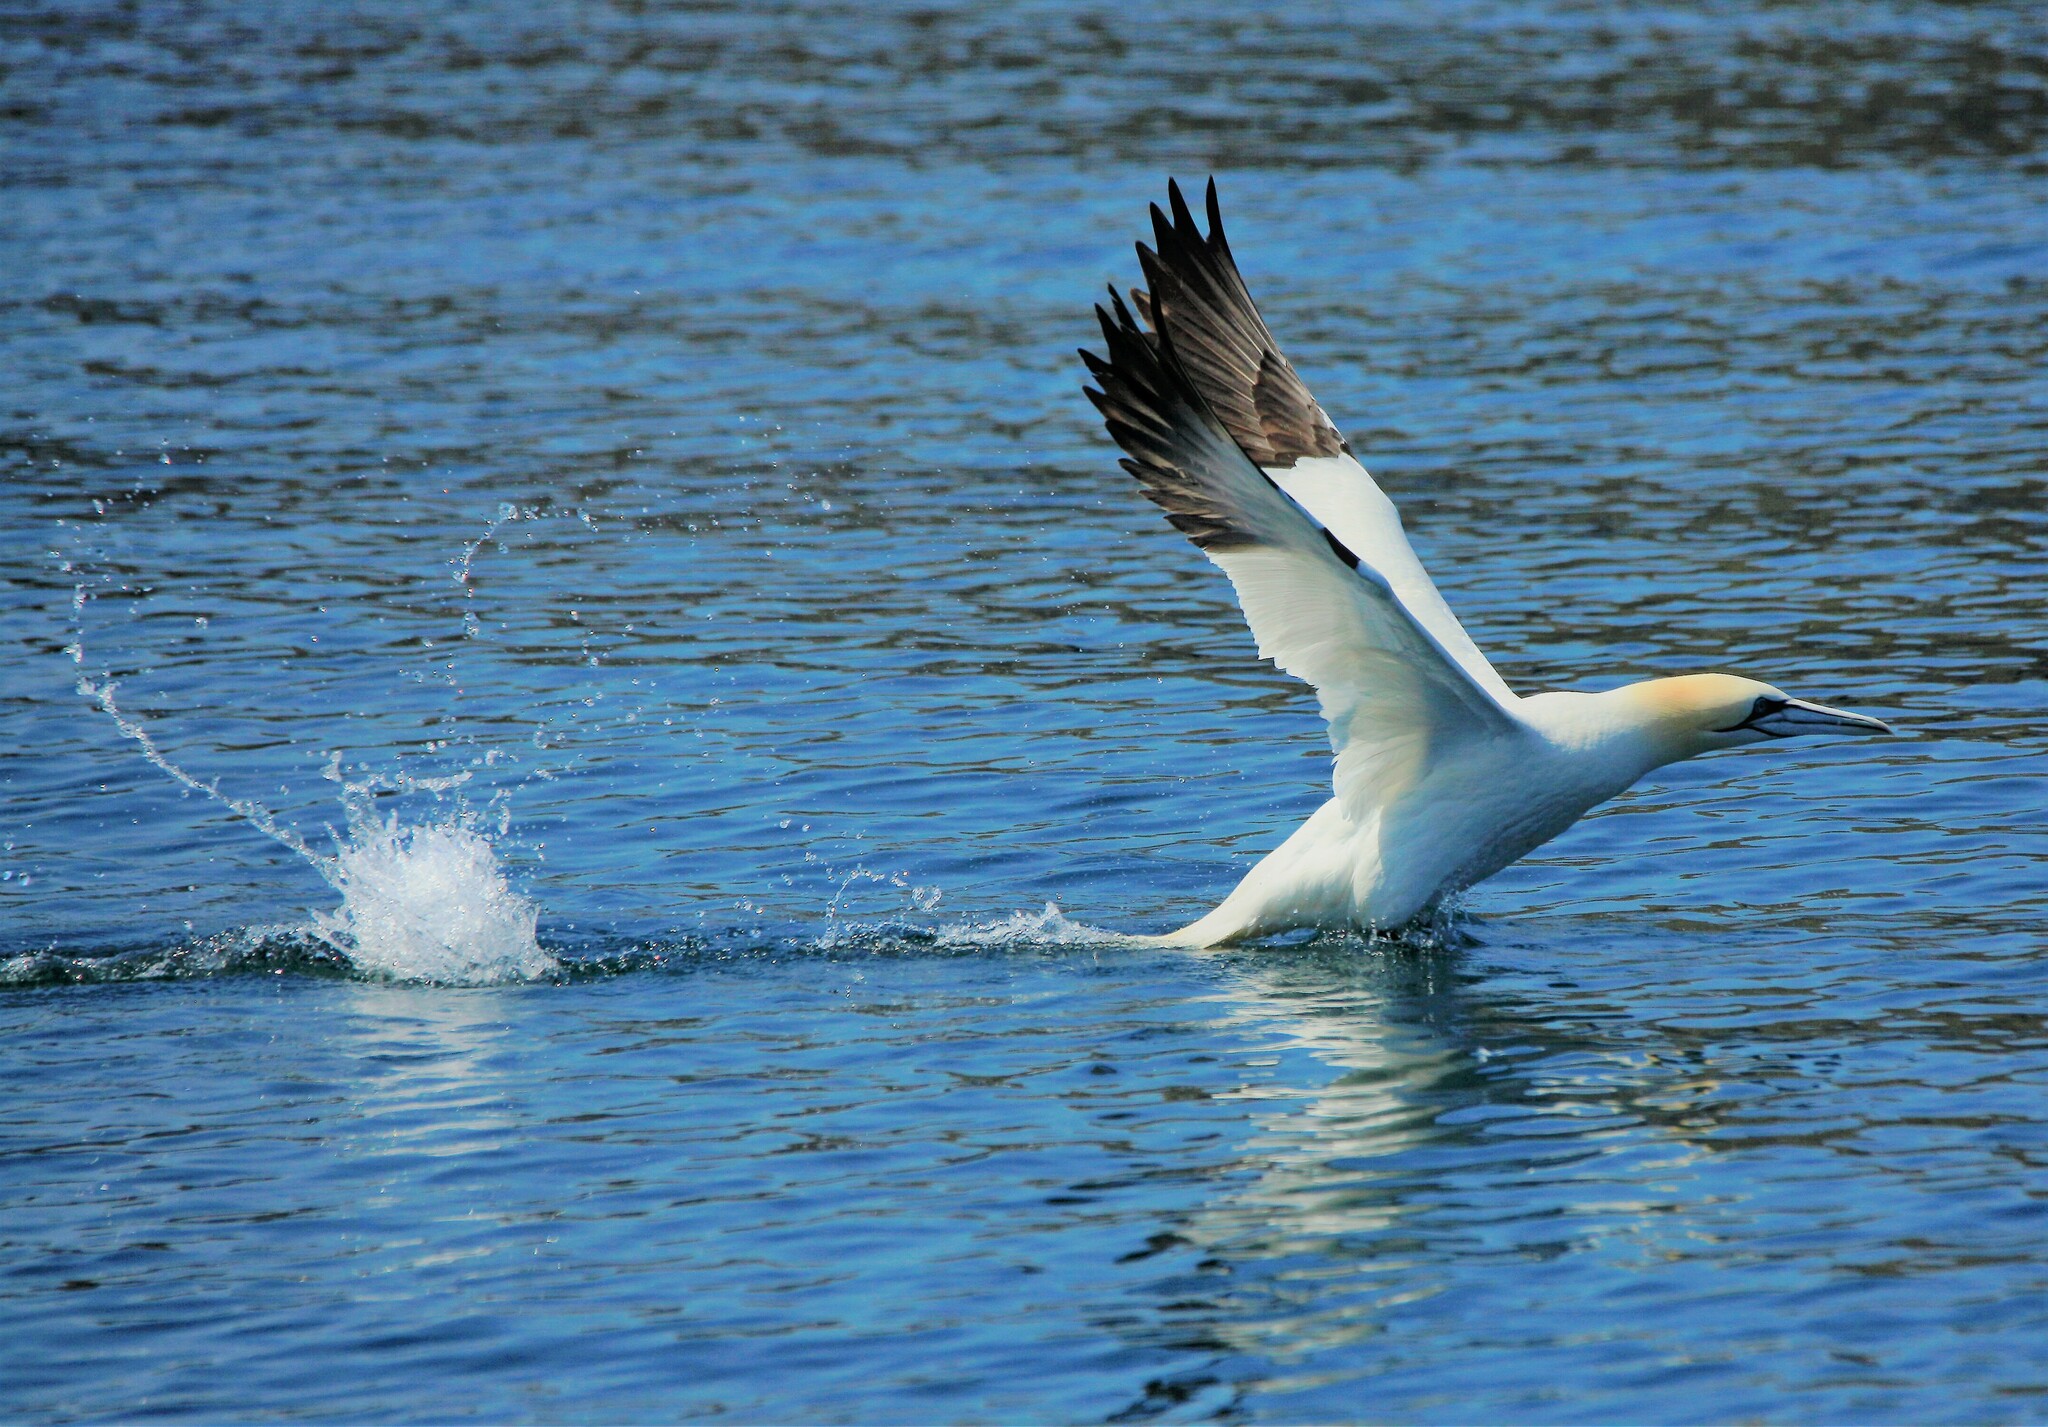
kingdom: Animalia
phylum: Chordata
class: Aves
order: Suliformes
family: Sulidae
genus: Morus
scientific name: Morus bassanus
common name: Northern gannet
